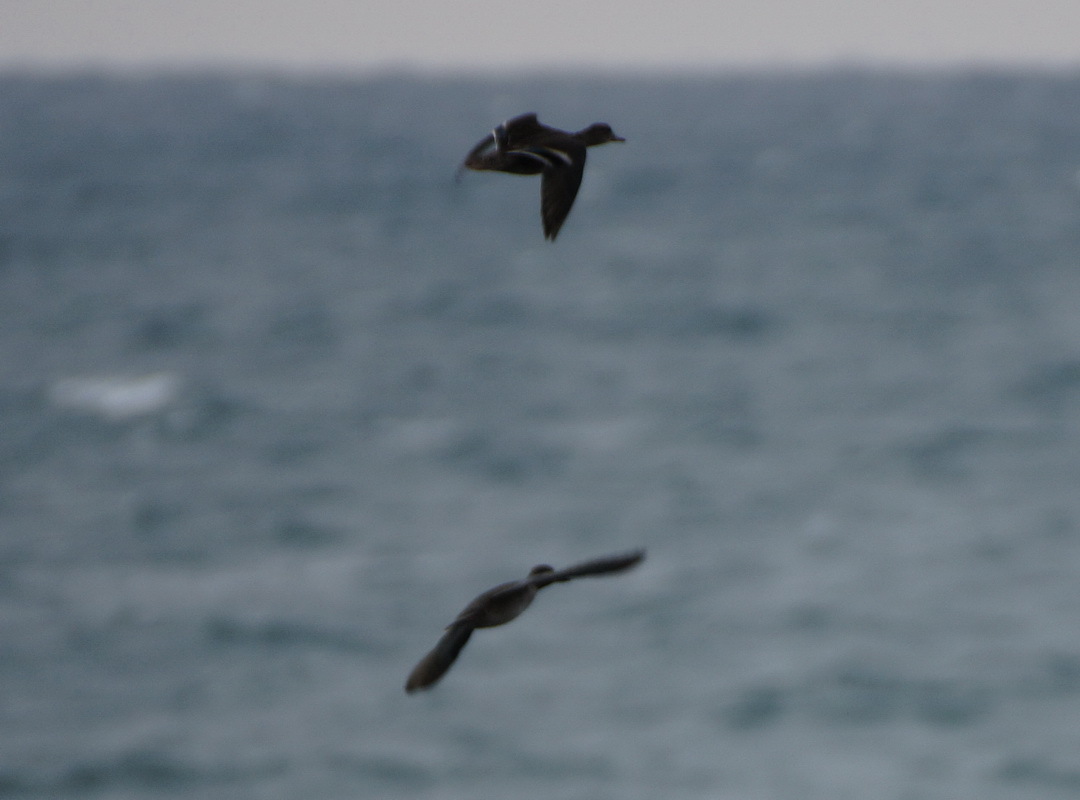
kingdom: Animalia
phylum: Chordata
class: Aves
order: Anseriformes
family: Anatidae
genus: Anas
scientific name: Anas crecca
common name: Eurasian teal
